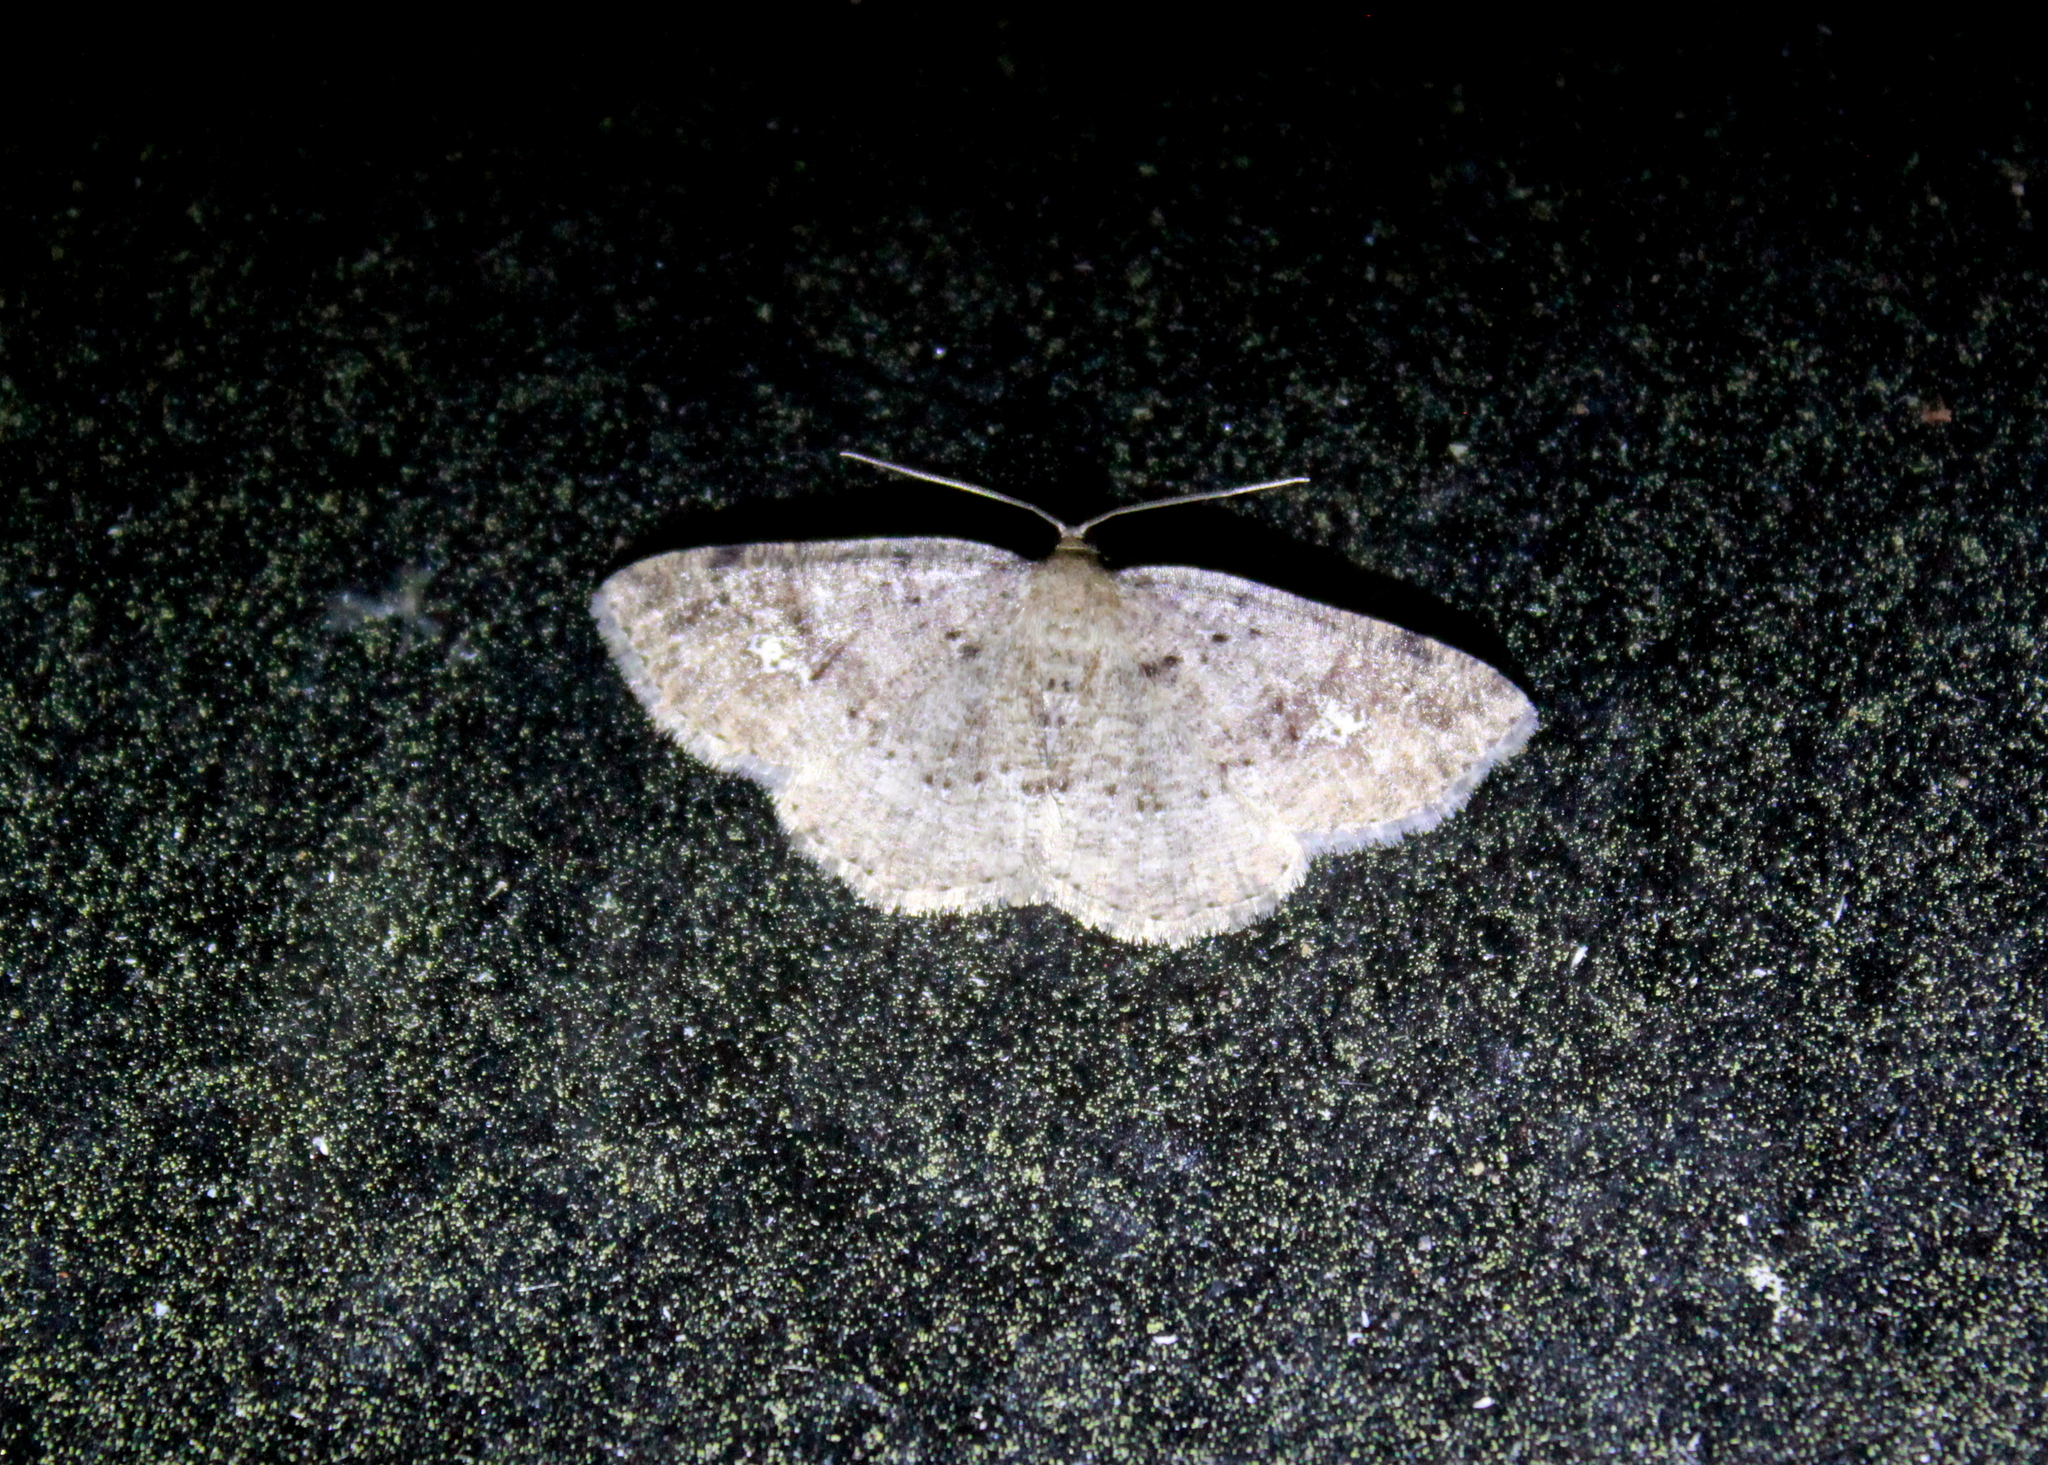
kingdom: Animalia
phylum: Arthropoda
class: Insecta
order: Lepidoptera
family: Geometridae
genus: Homochlodes
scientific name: Homochlodes fritillaria
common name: Pale homochlodes
